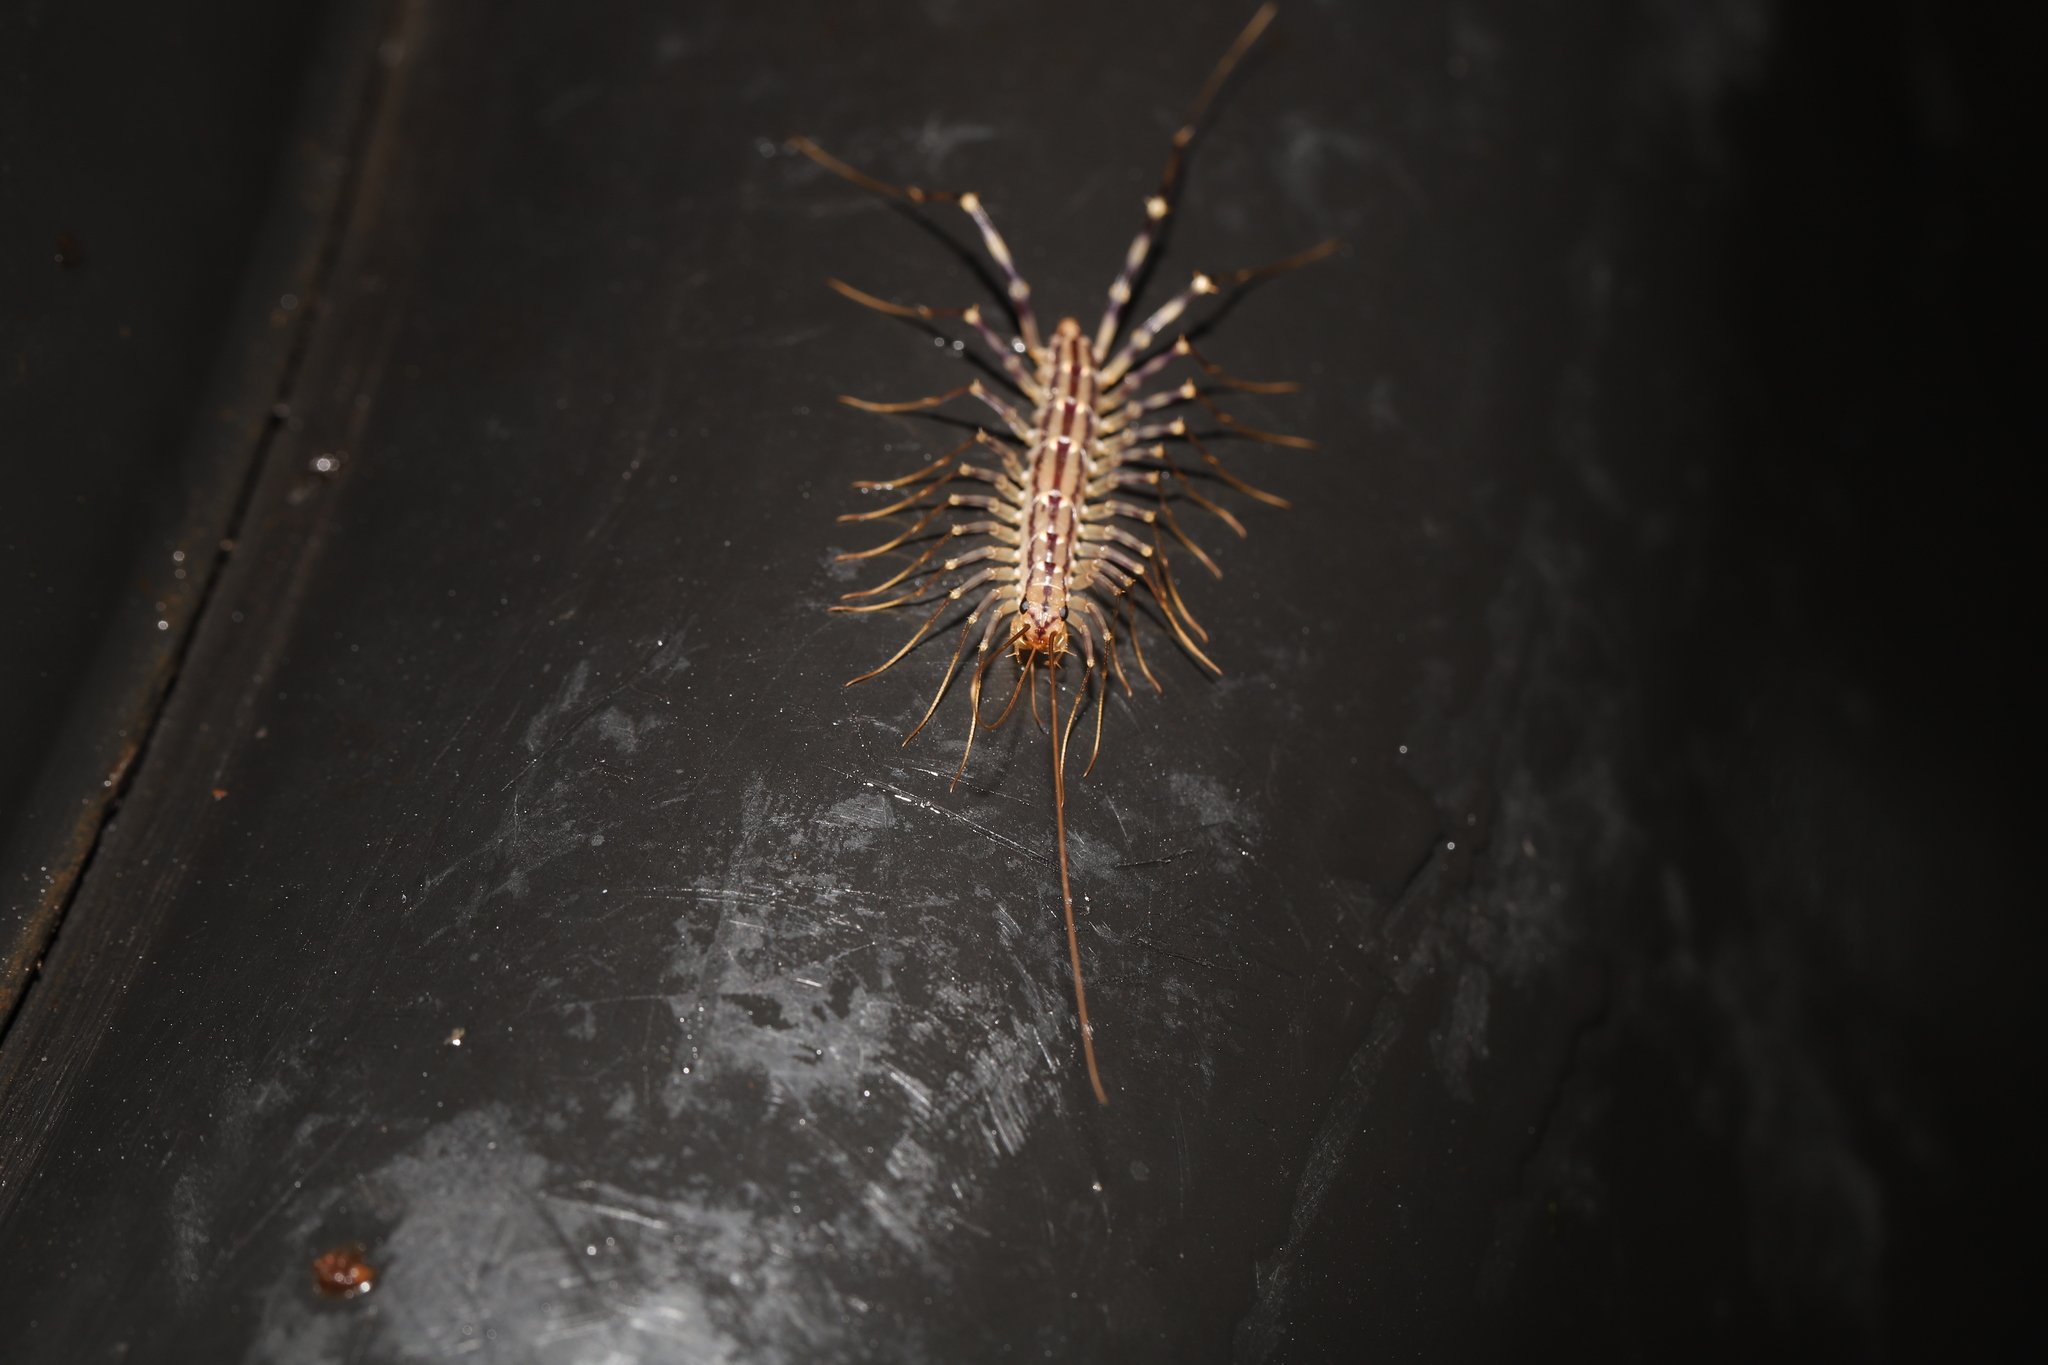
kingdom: Animalia
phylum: Arthropoda
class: Chilopoda
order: Scutigeromorpha
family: Scutigeridae
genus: Scutigera
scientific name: Scutigera coleoptrata
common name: House centipede
